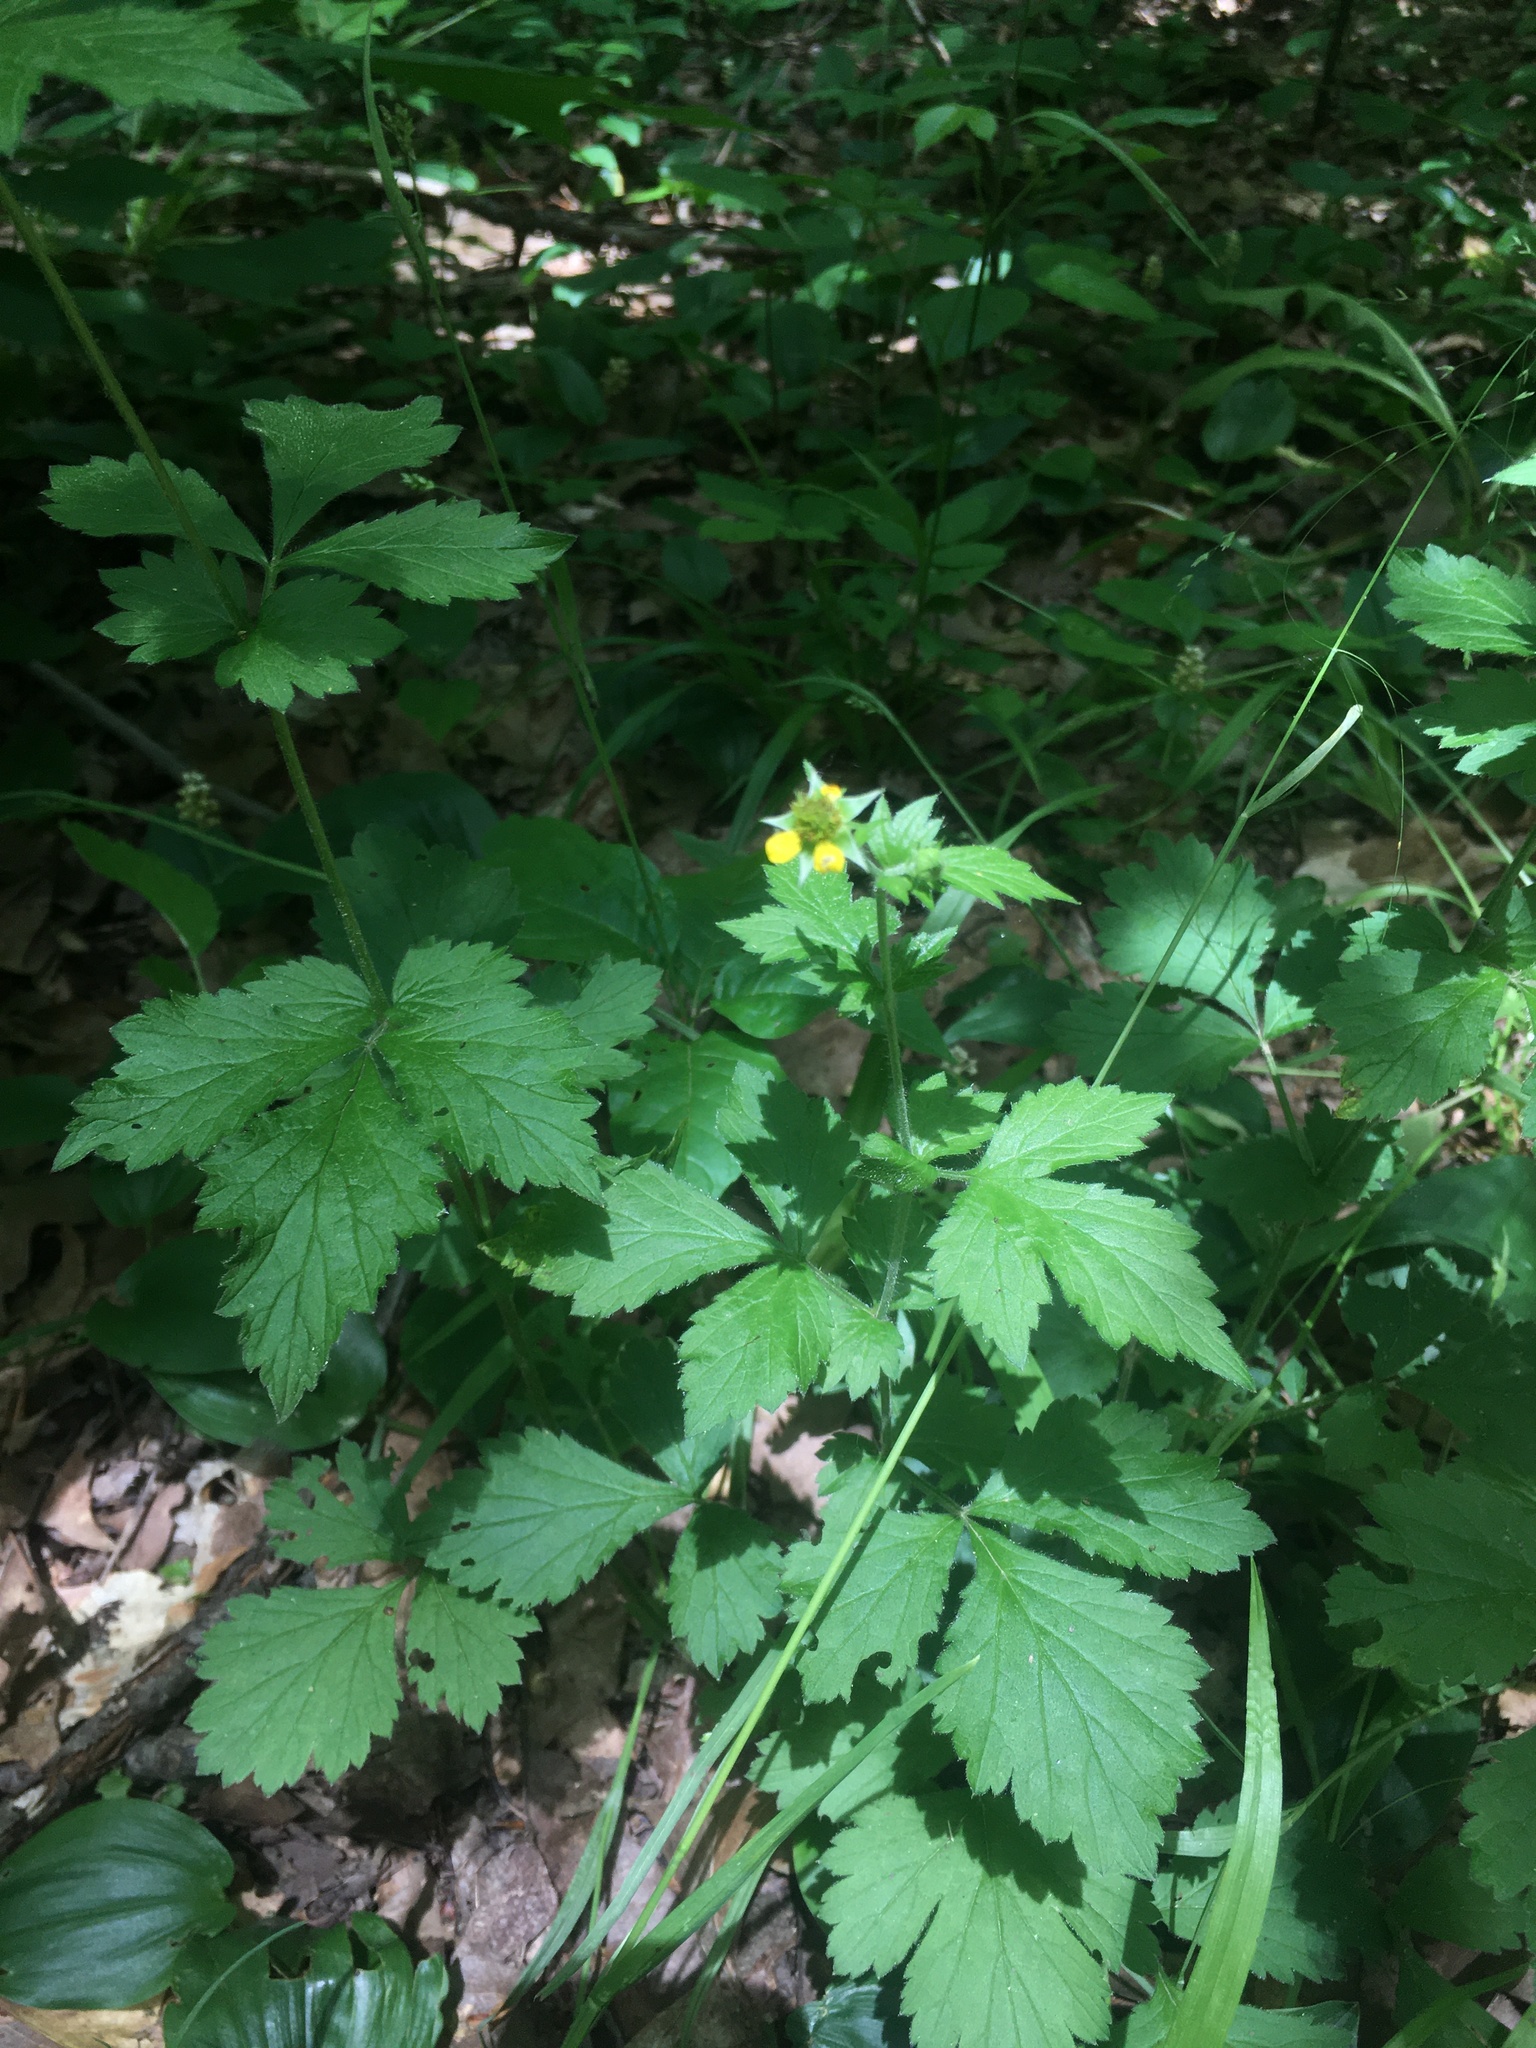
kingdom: Plantae
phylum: Tracheophyta
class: Magnoliopsida
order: Rosales
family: Rosaceae
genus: Geum
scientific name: Geum urbanum
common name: Wood avens
